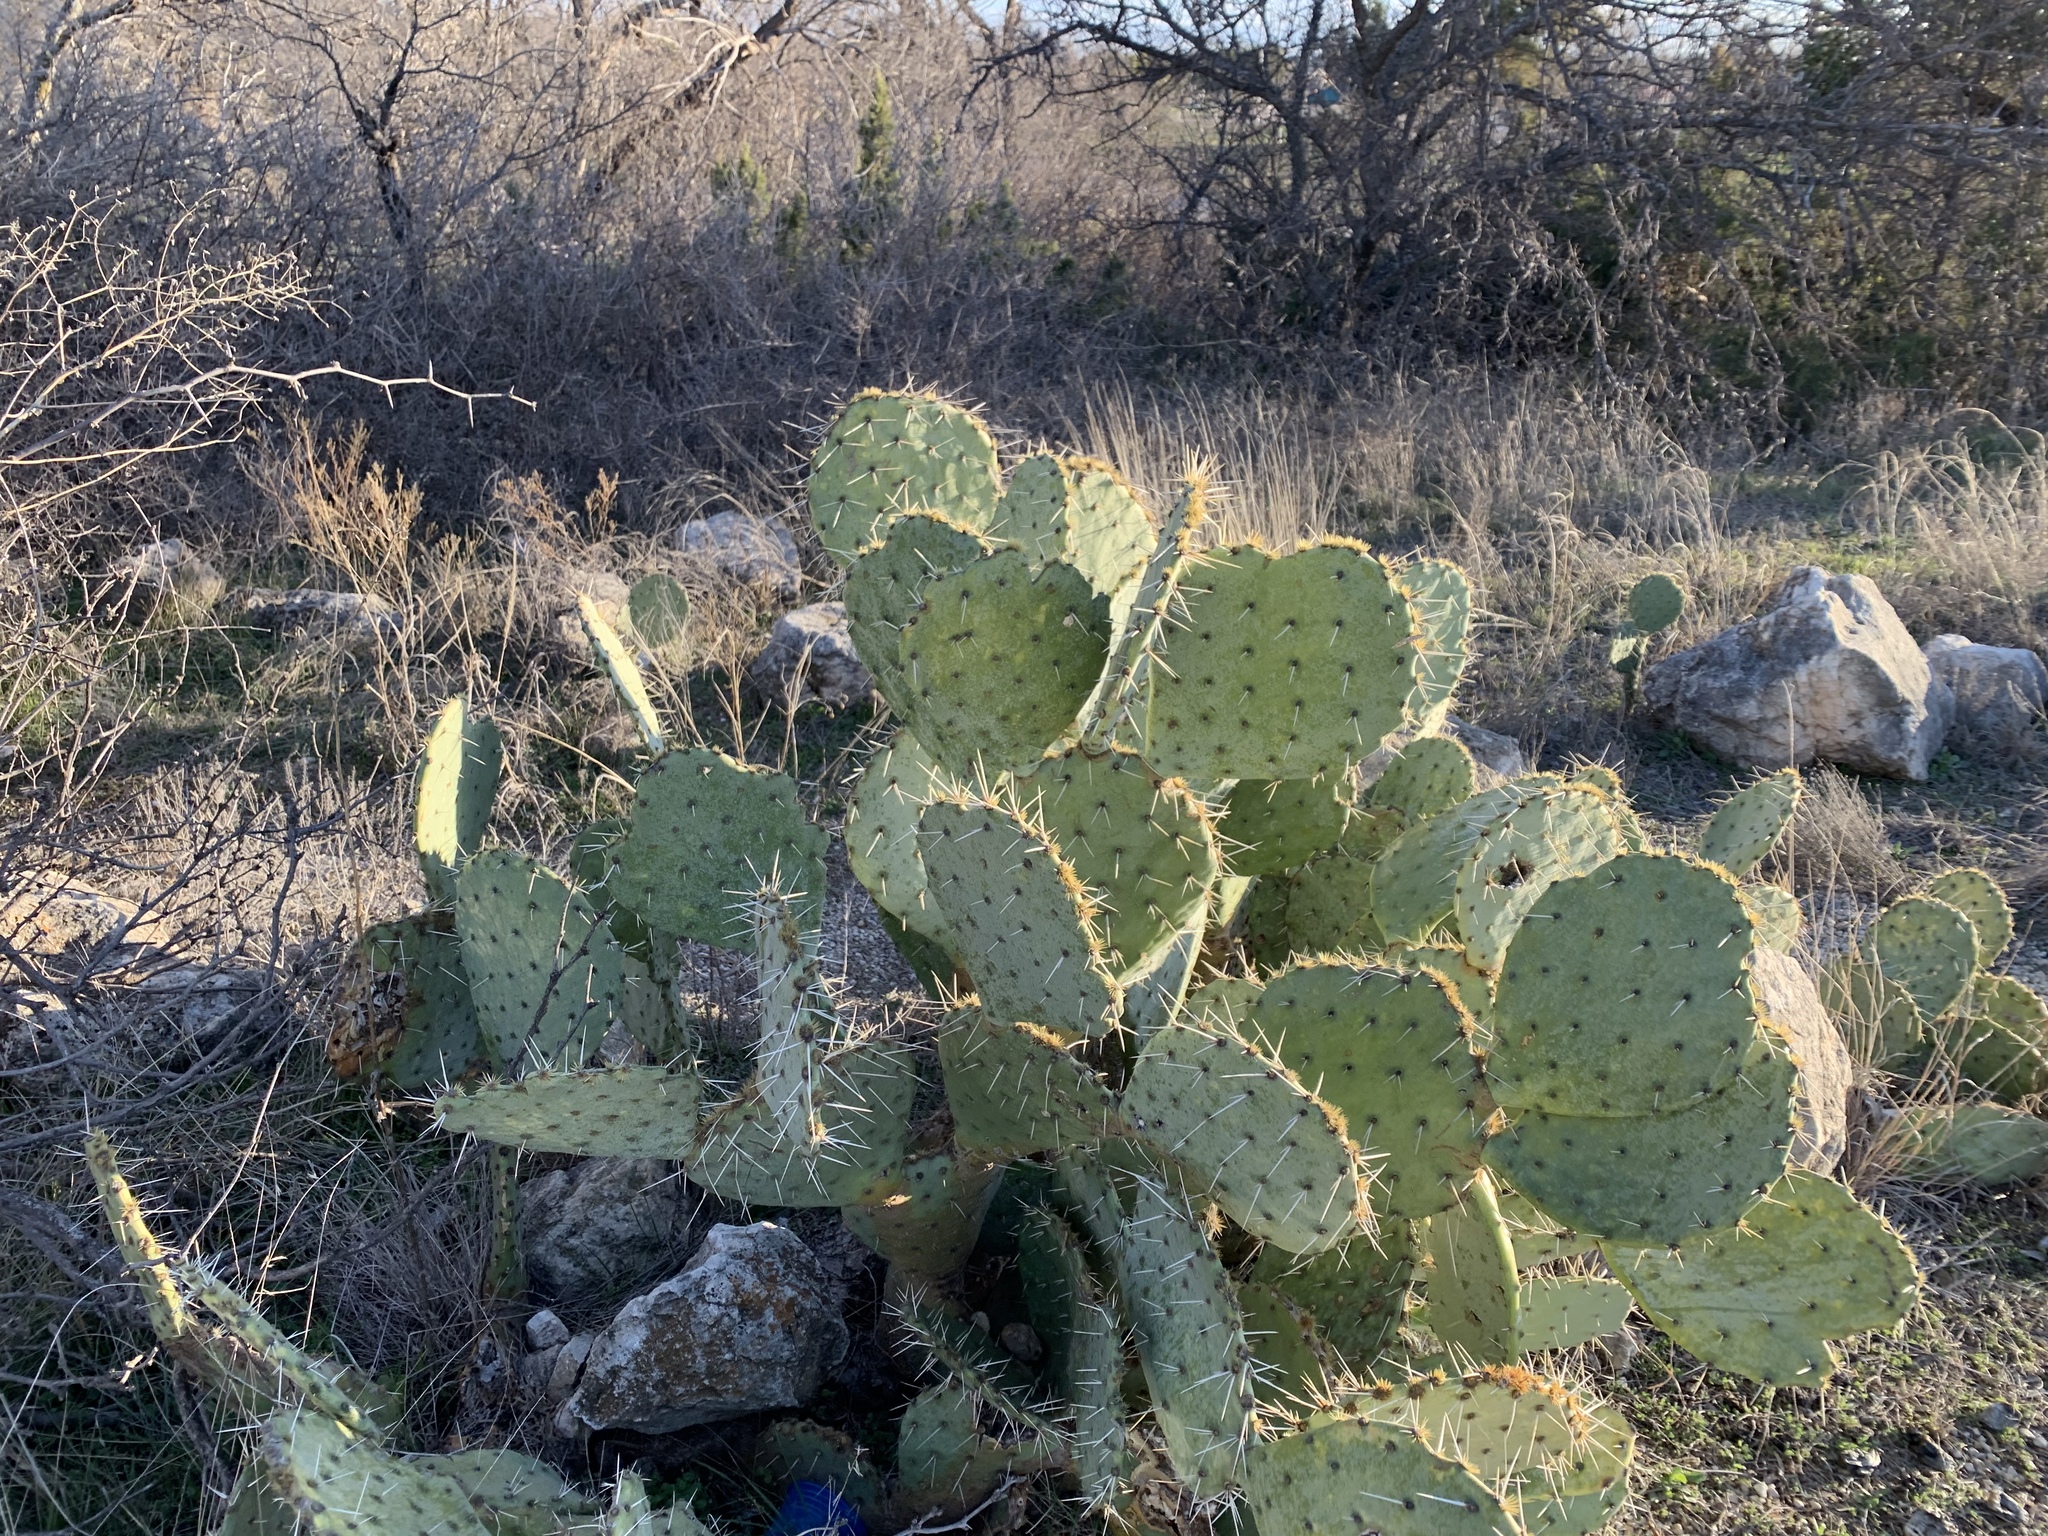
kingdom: Plantae
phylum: Tracheophyta
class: Magnoliopsida
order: Caryophyllales
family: Cactaceae
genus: Opuntia
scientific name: Opuntia engelmannii
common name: Cactus-apple
